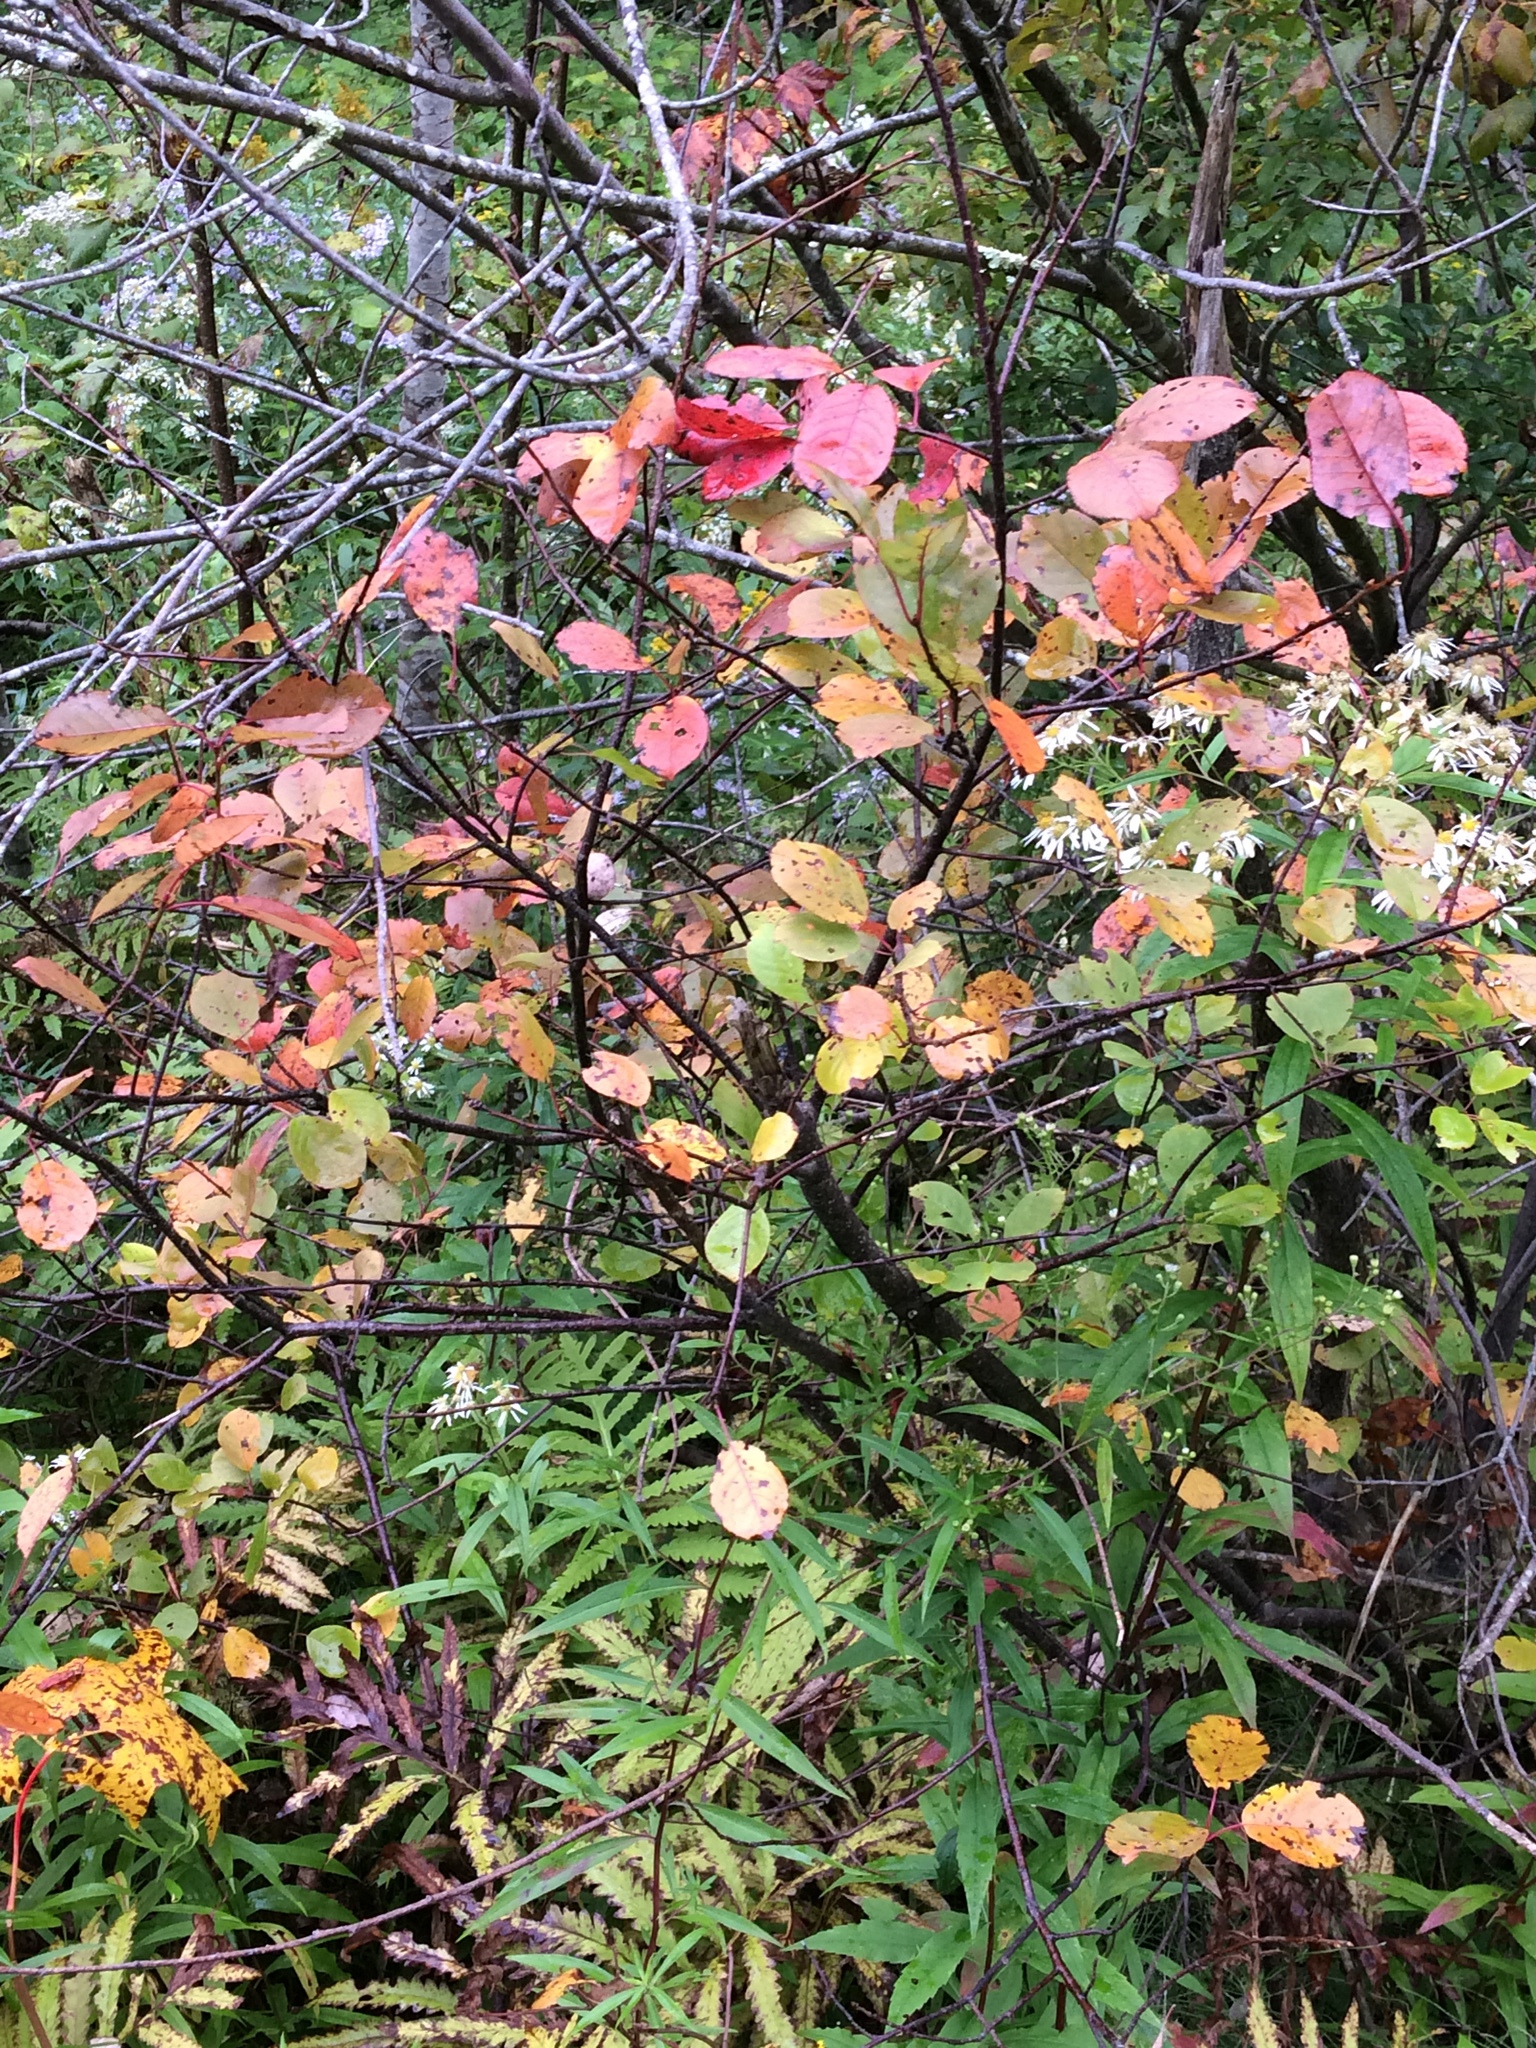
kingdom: Plantae
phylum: Tracheophyta
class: Magnoliopsida
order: Rosales
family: Rosaceae
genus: Prunus
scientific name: Prunus virginiana
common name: Chokecherry
